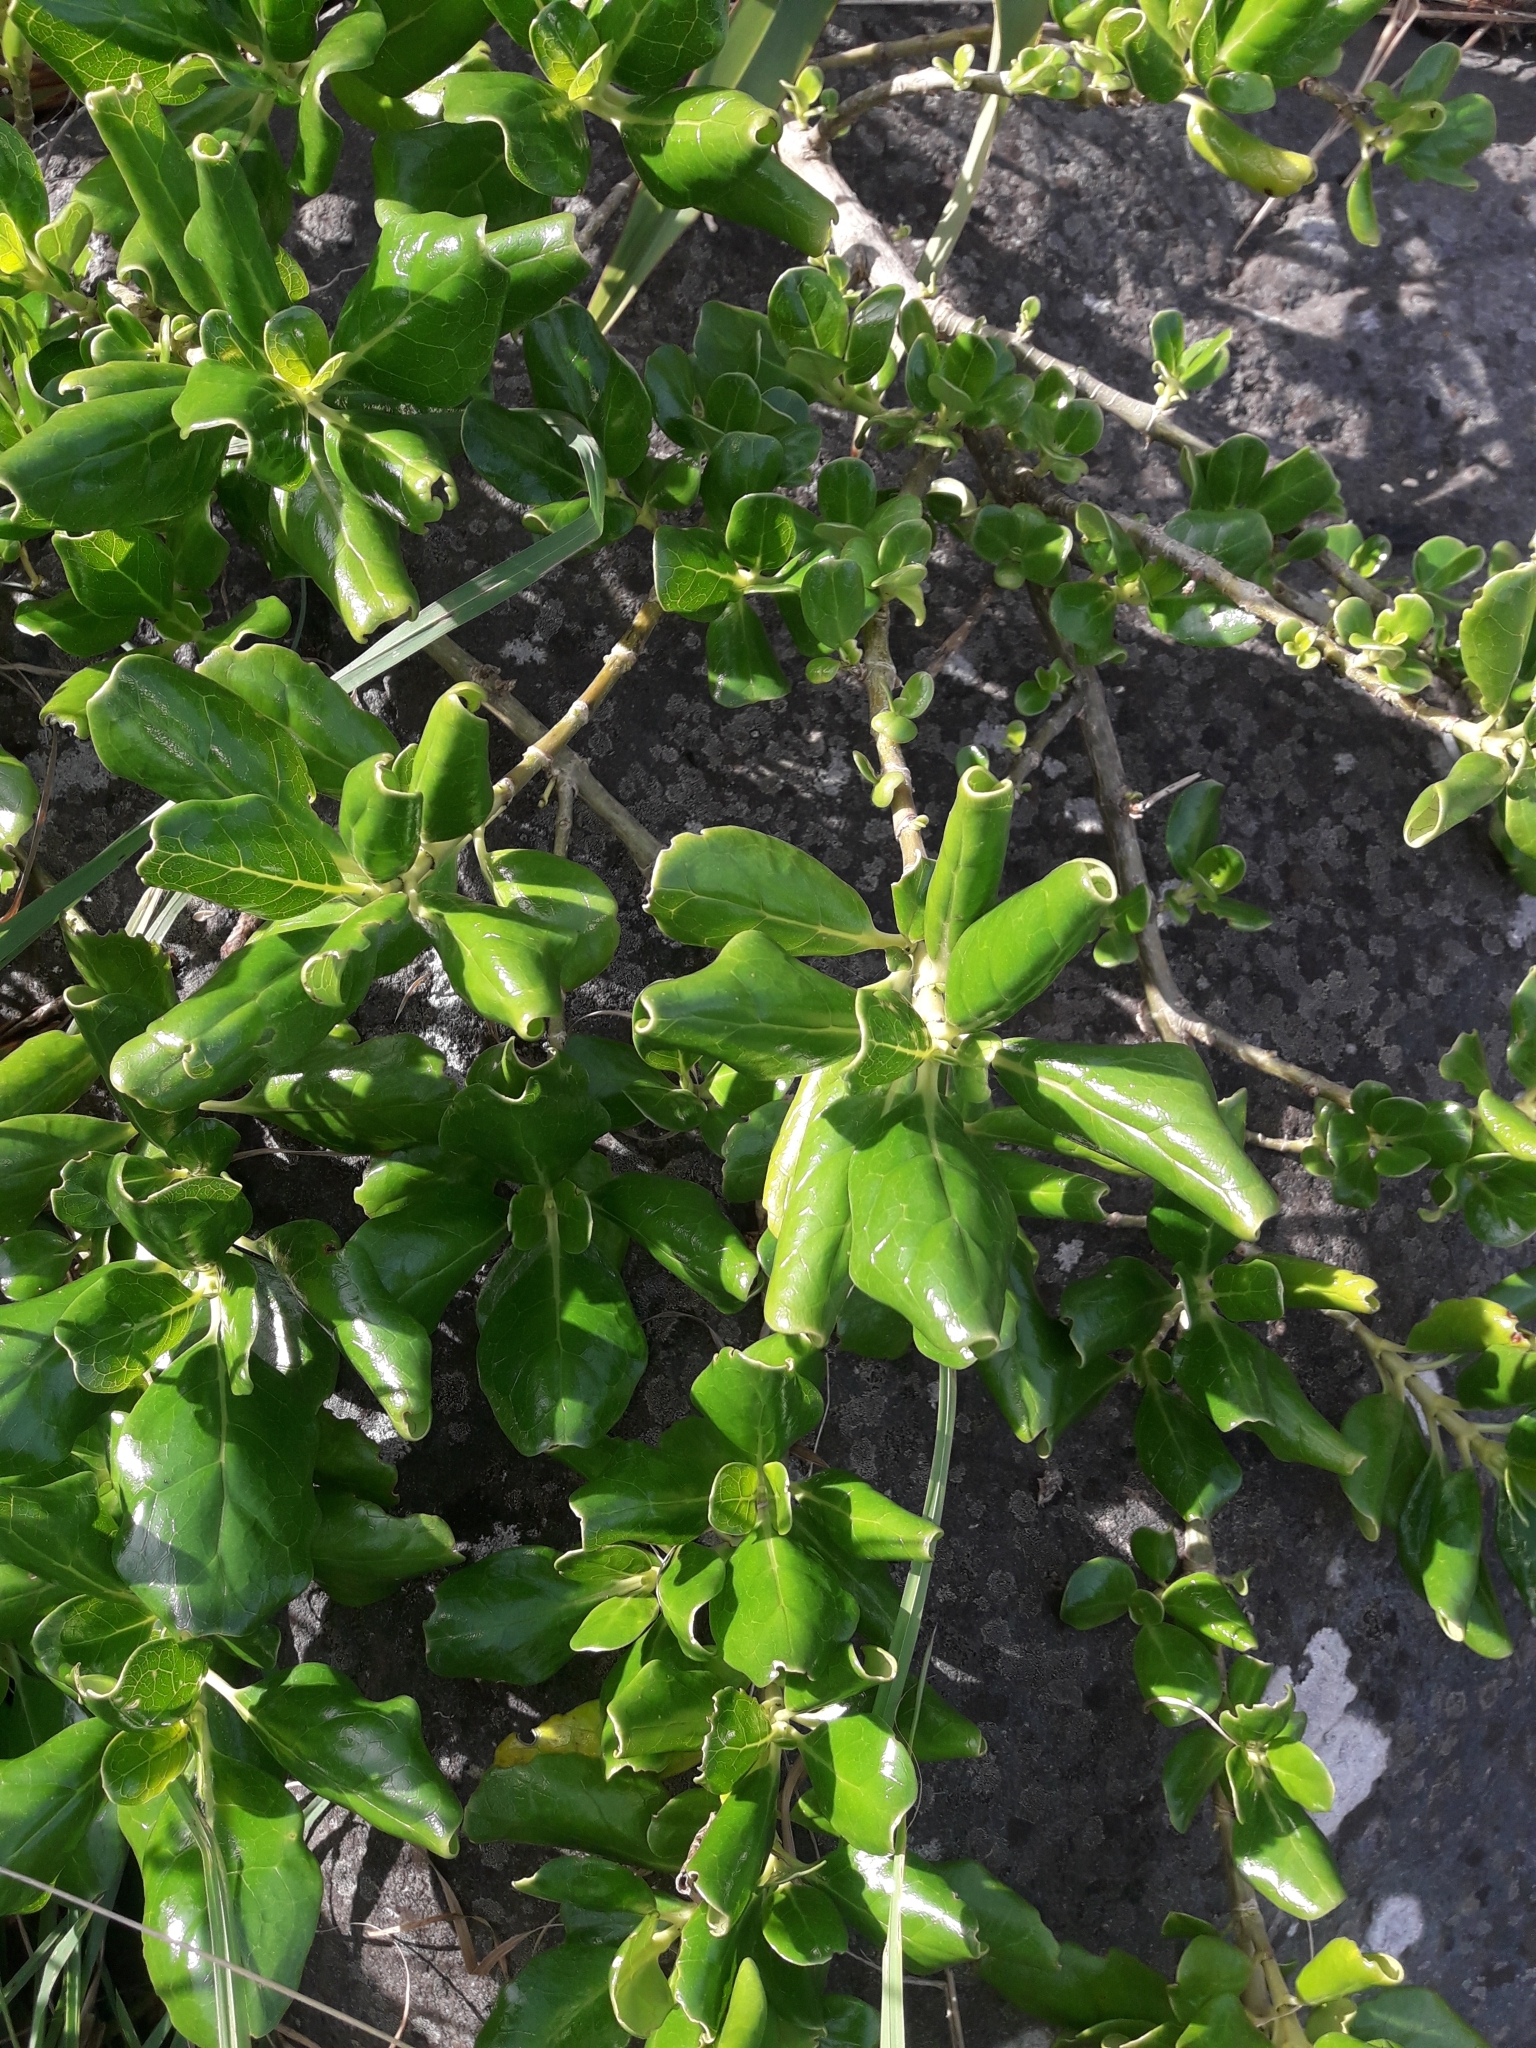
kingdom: Plantae
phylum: Tracheophyta
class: Magnoliopsida
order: Gentianales
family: Rubiaceae
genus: Coprosma
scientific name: Coprosma repens
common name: Tree bedstraw
